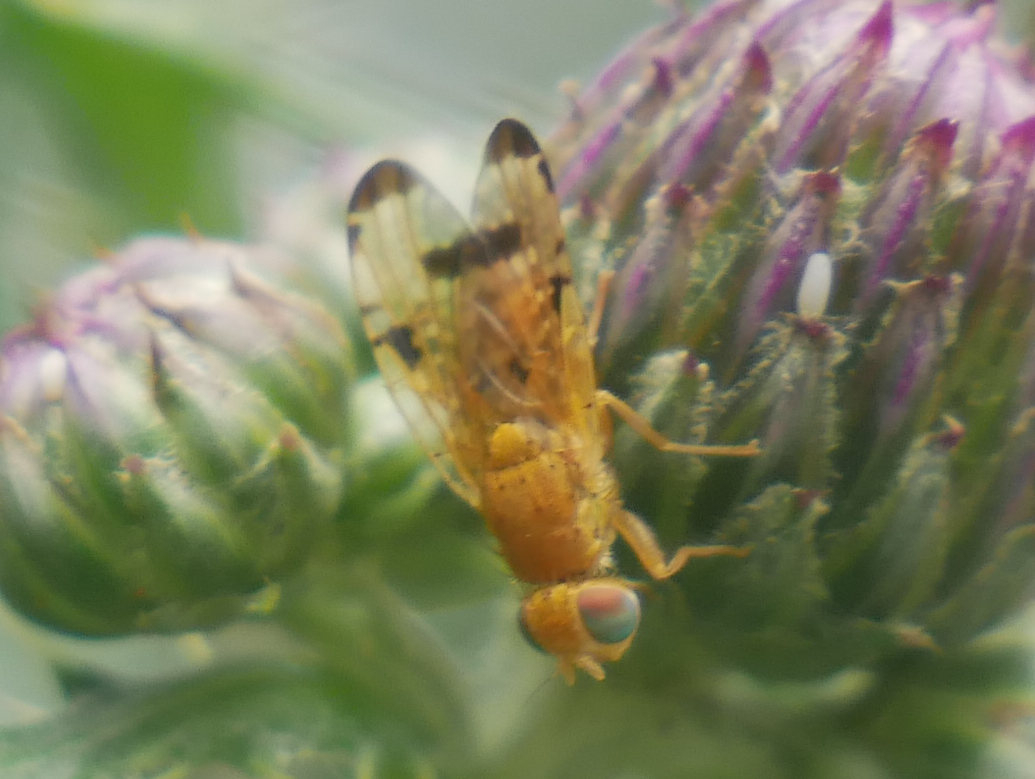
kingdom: Animalia
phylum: Arthropoda
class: Insecta
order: Diptera
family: Tephritidae
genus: Xyphosia
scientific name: Xyphosia miliaria
